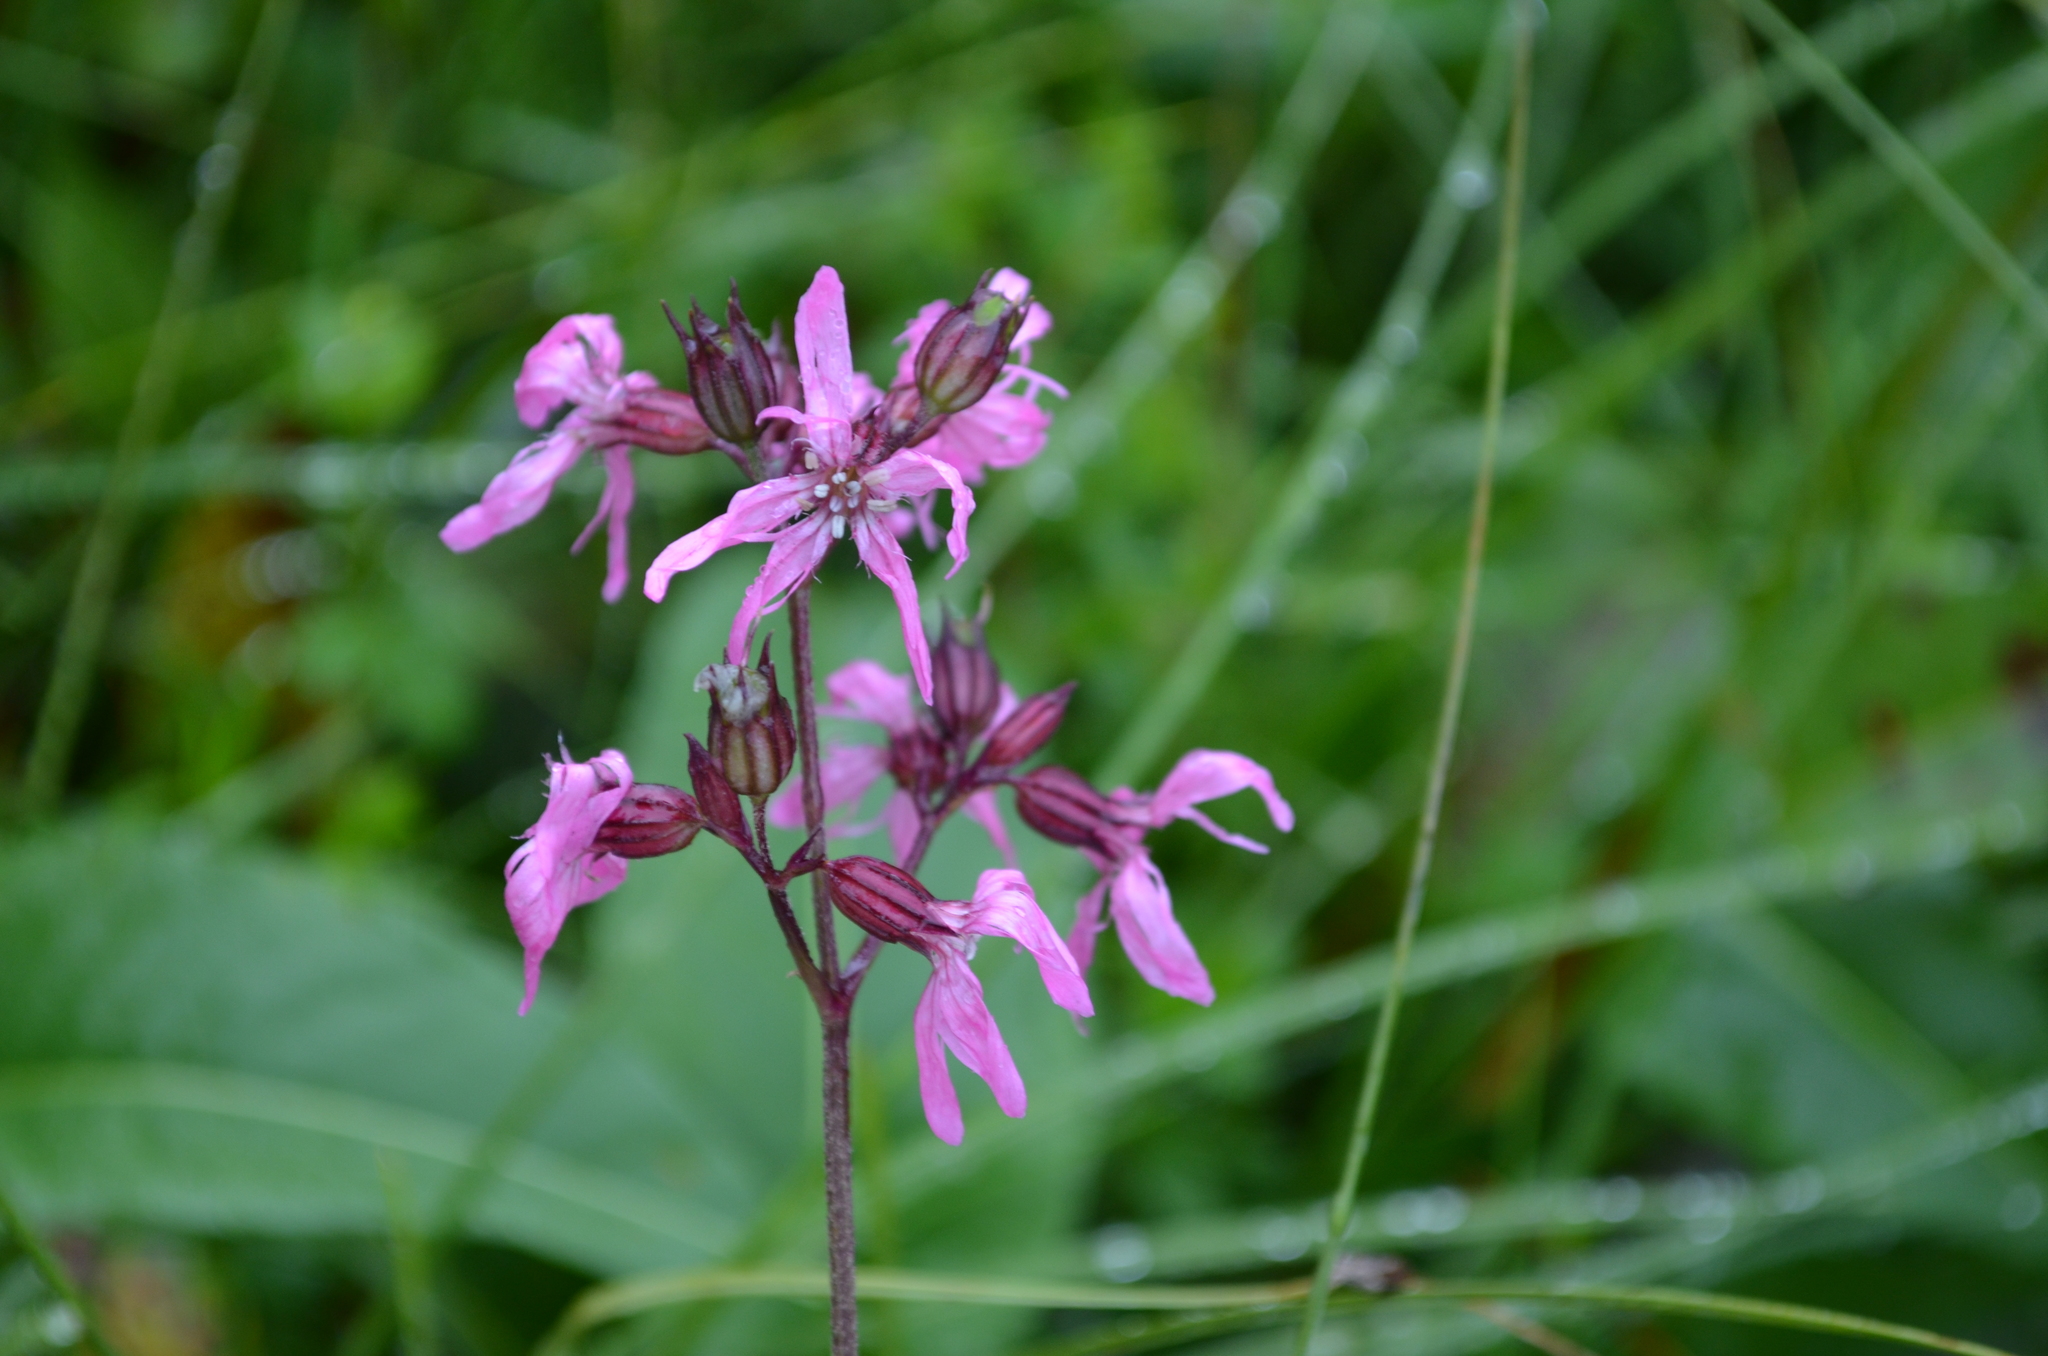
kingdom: Plantae
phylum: Tracheophyta
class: Magnoliopsida
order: Caryophyllales
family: Caryophyllaceae
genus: Silene
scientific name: Silene flos-cuculi
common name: Ragged-robin
